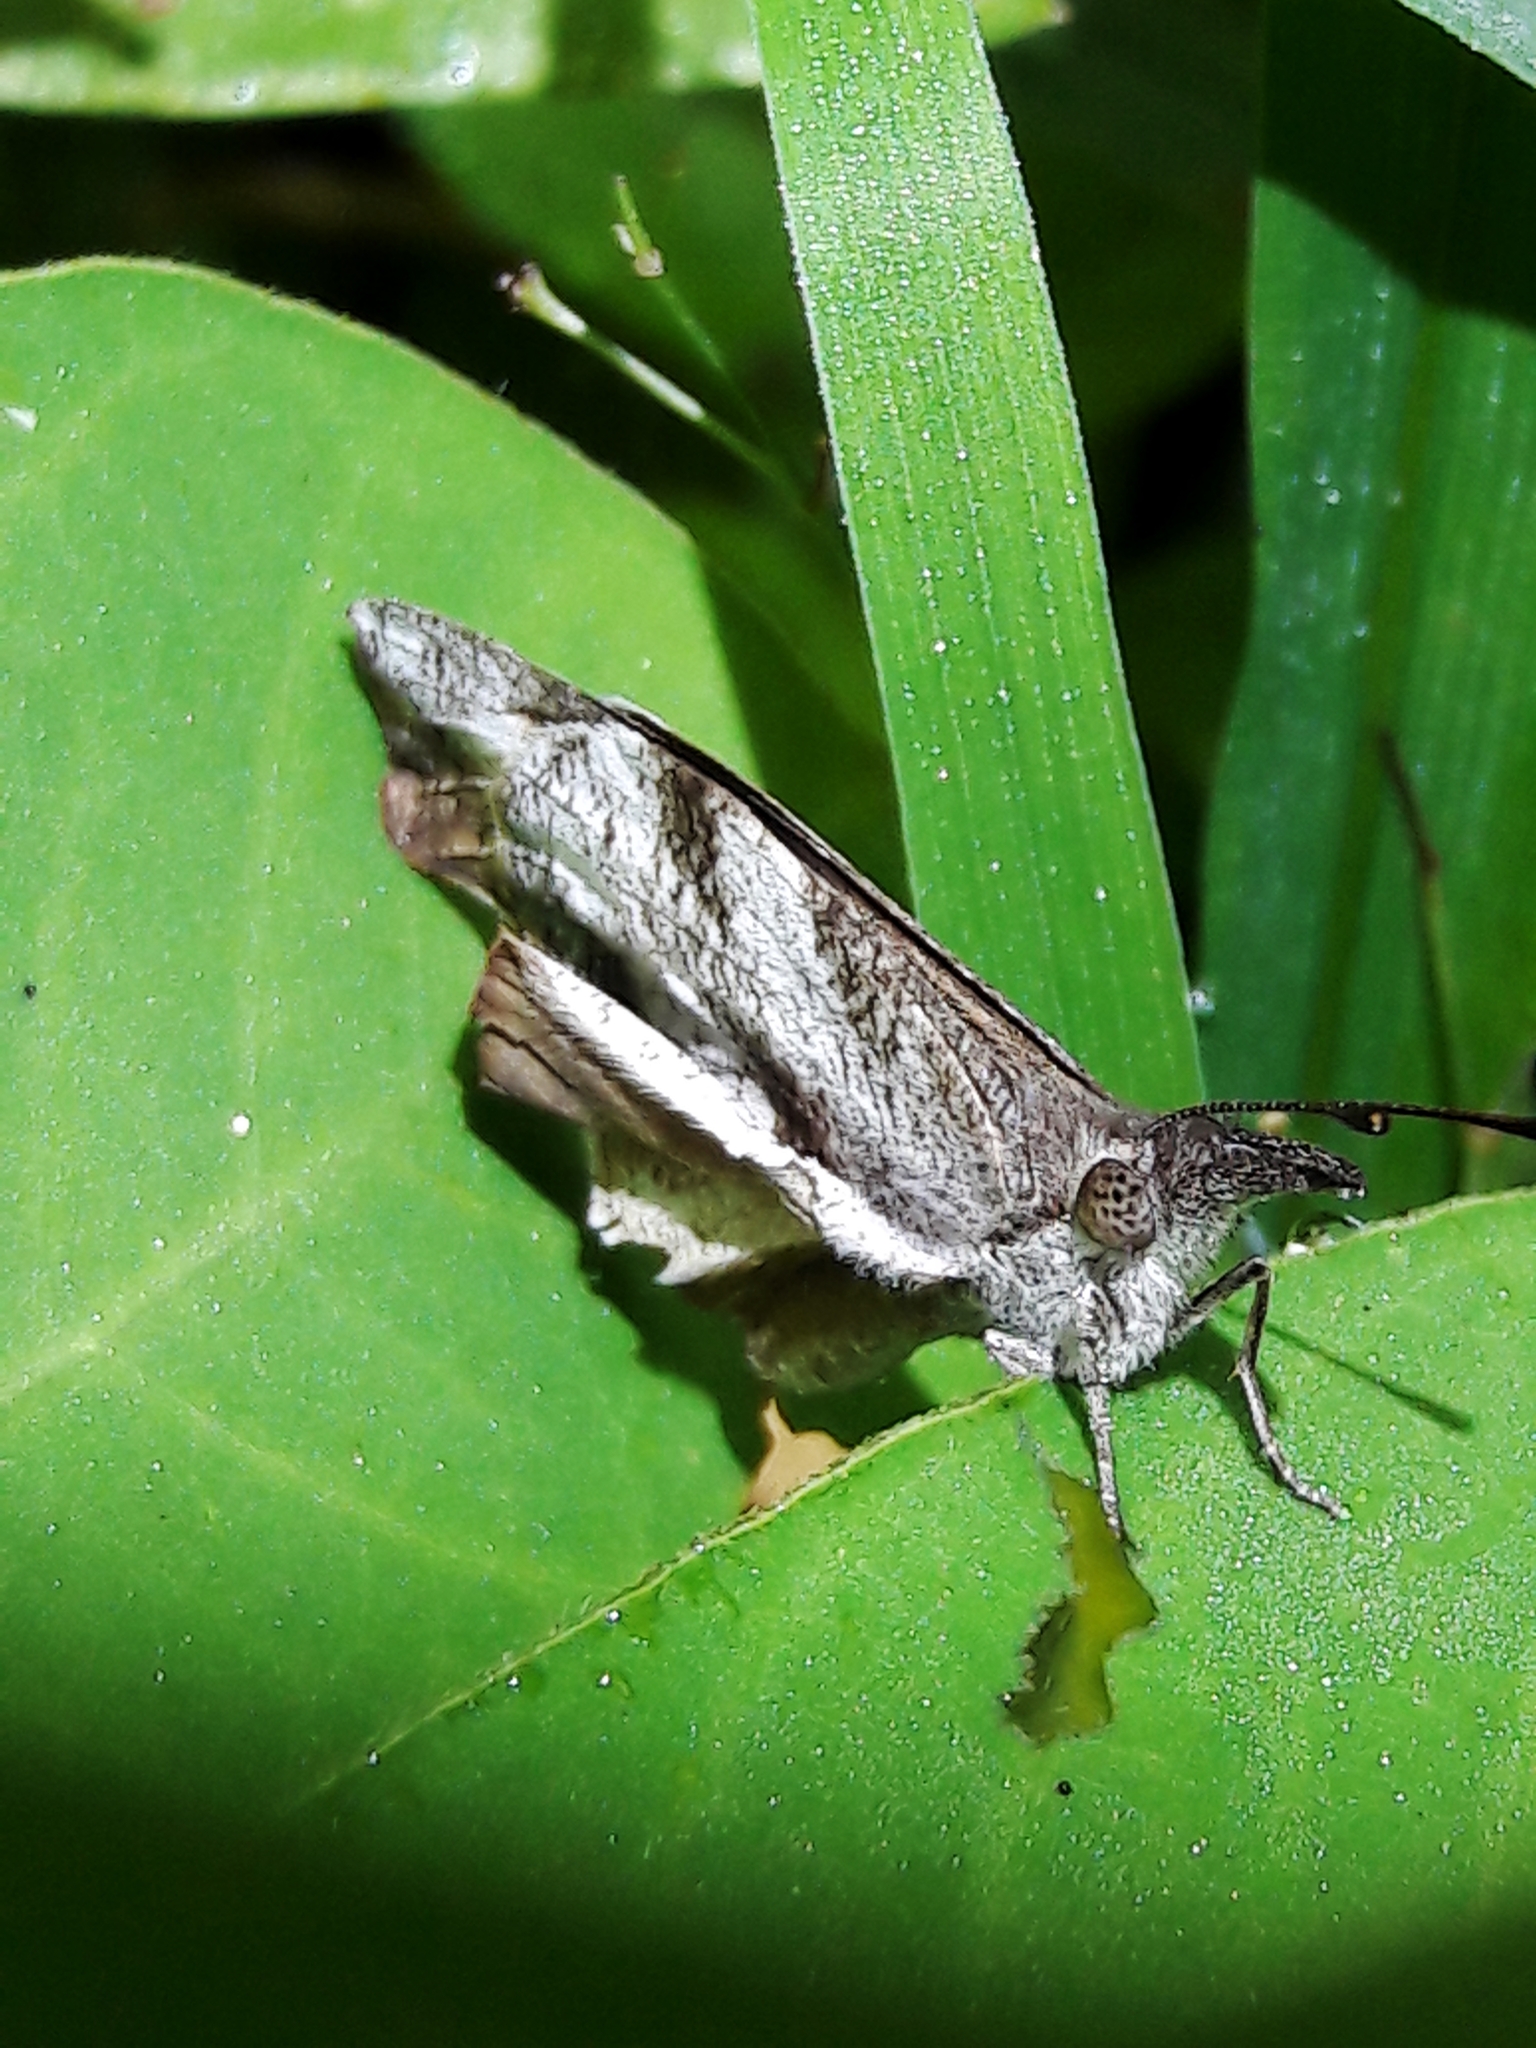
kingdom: Animalia
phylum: Arthropoda
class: Insecta
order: Lepidoptera
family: Nymphalidae
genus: Libytheana
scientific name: Libytheana carinenta
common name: American snout
